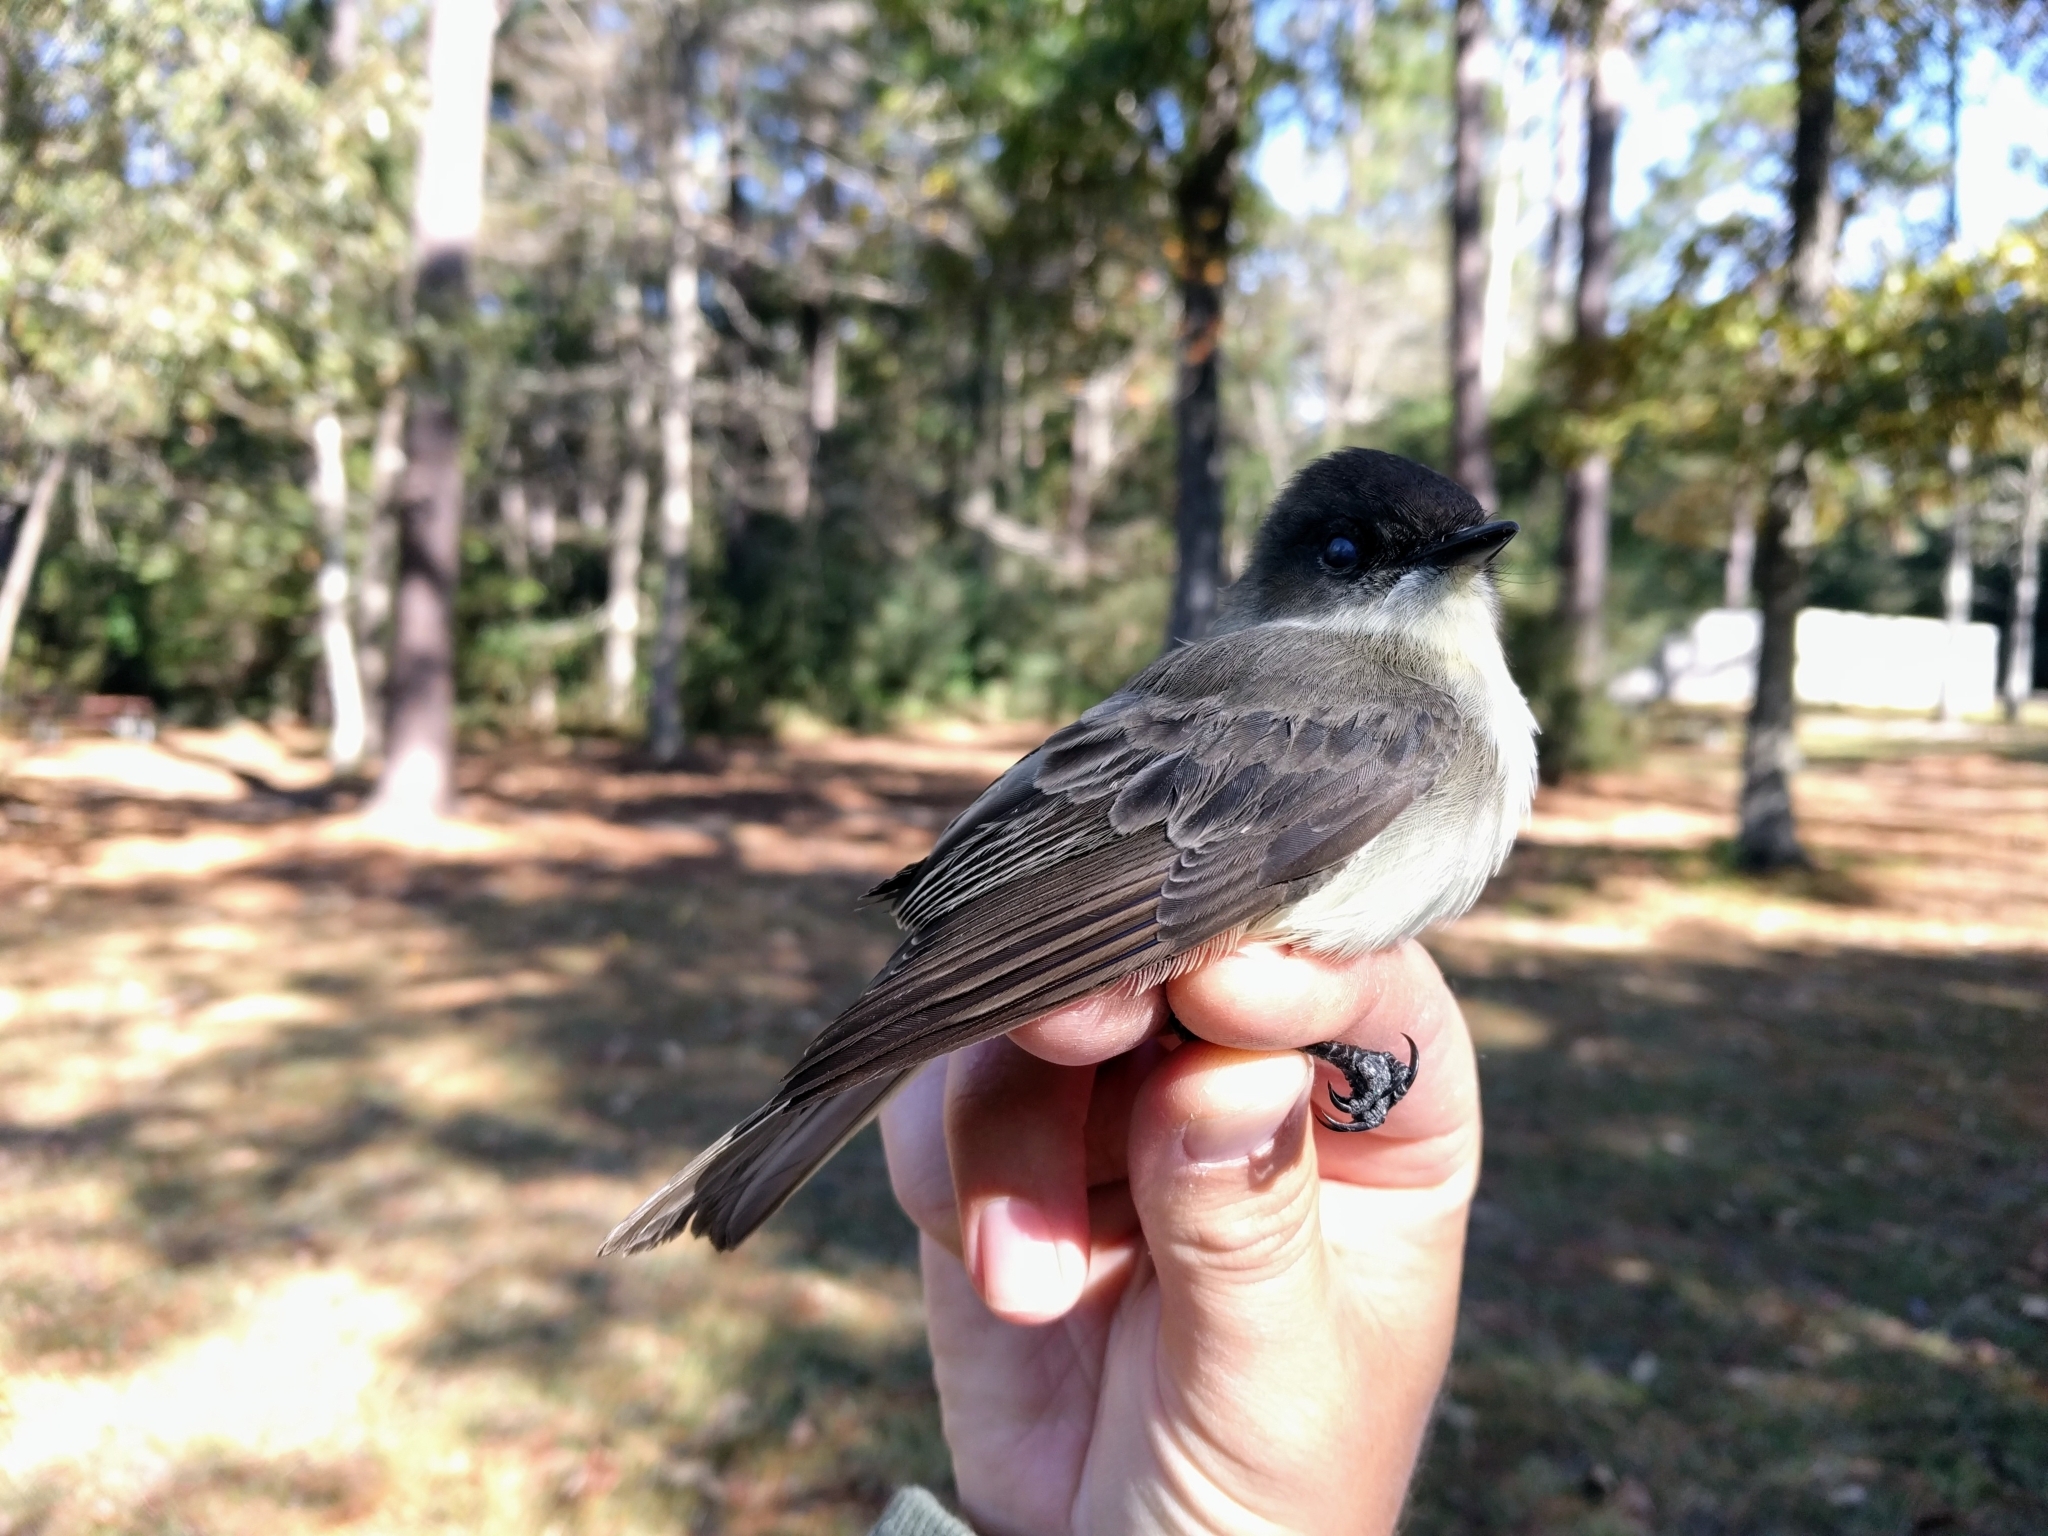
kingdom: Animalia
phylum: Chordata
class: Aves
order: Passeriformes
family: Tyrannidae
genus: Sayornis
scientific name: Sayornis phoebe
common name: Eastern phoebe
